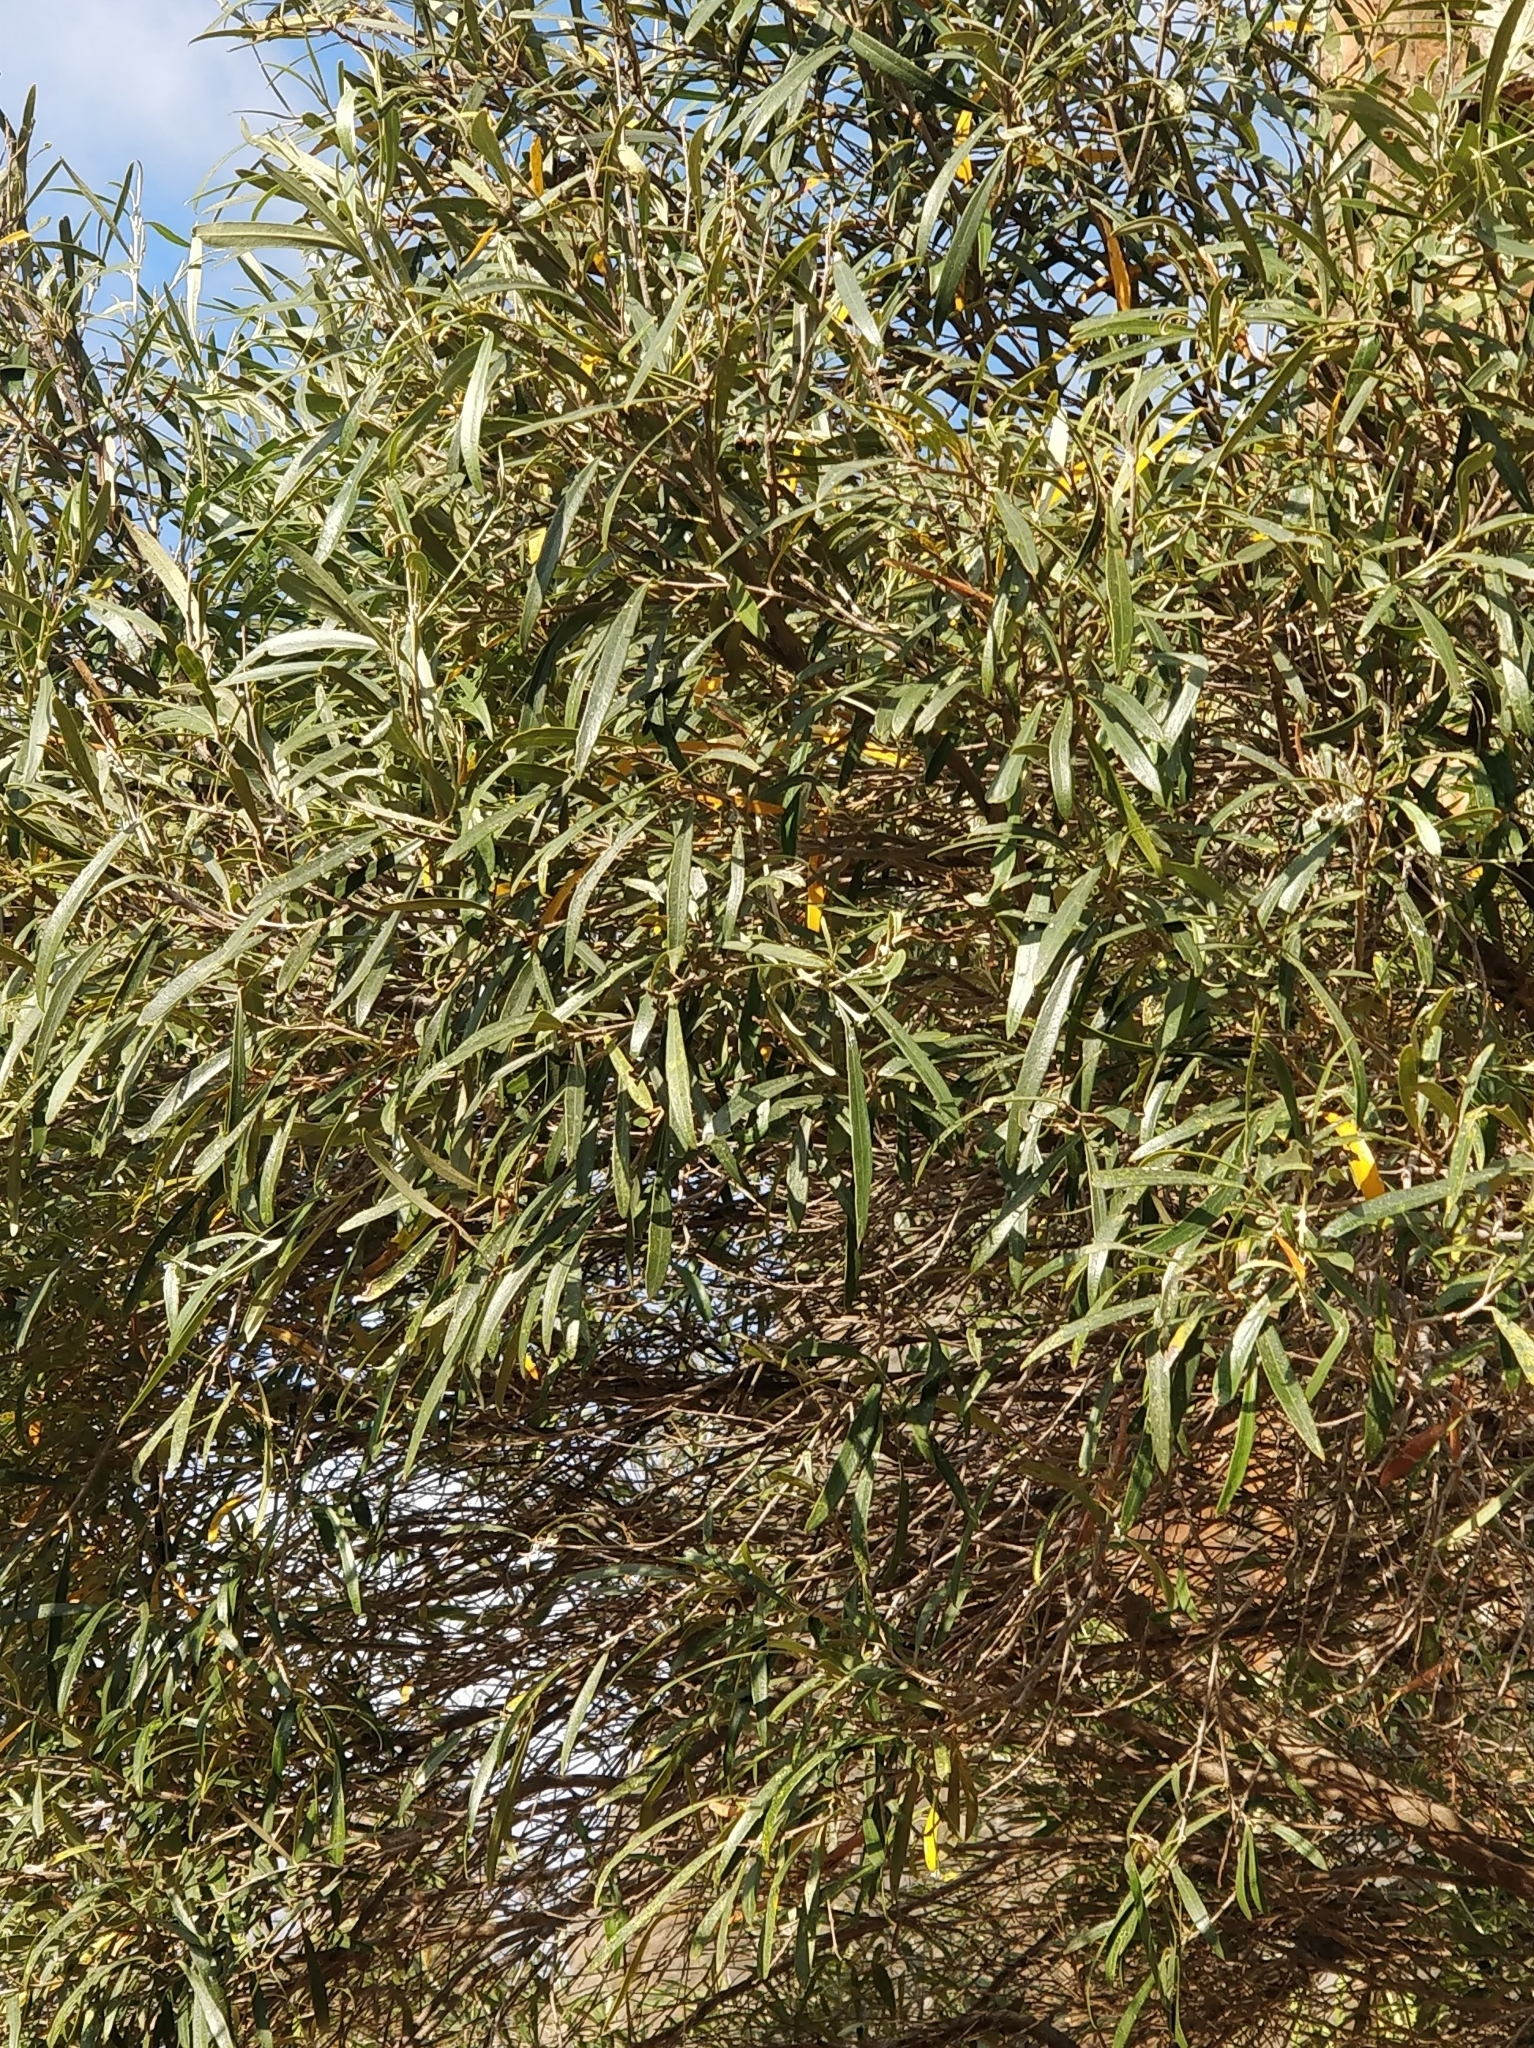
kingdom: Plantae
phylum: Tracheophyta
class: Magnoliopsida
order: Lamiales
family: Oleaceae
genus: Olea
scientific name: Olea europaea
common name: Olive
